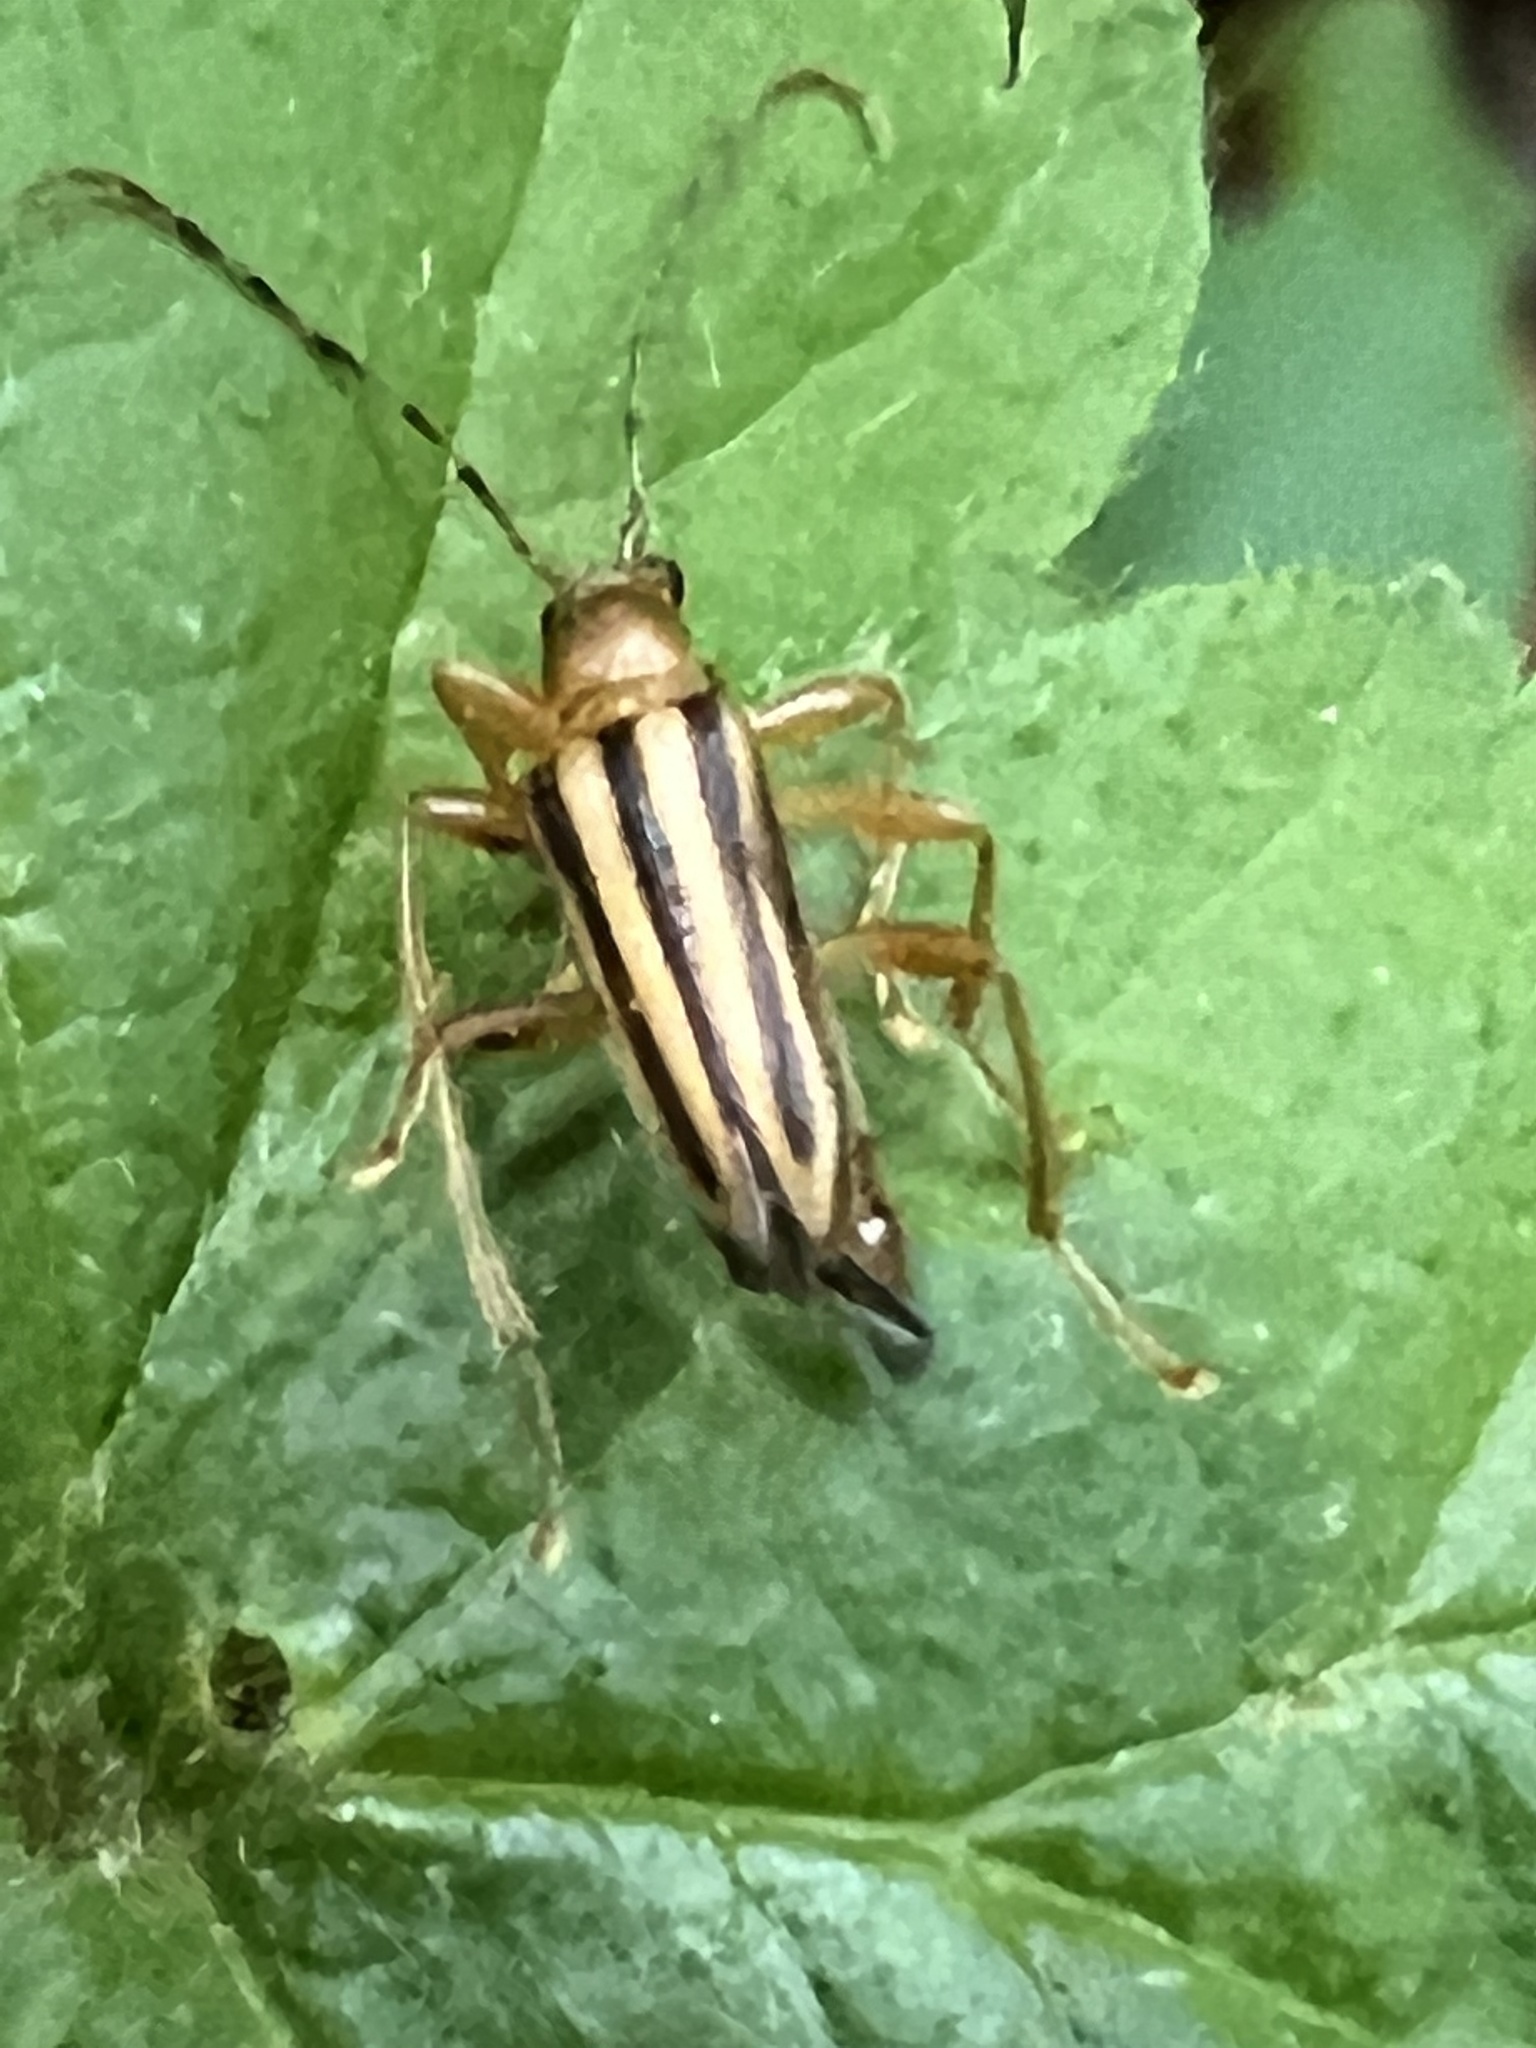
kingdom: Animalia
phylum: Arthropoda
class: Insecta
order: Coleoptera
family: Cerambycidae
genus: Metacmaeops
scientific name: Metacmaeops vittata
